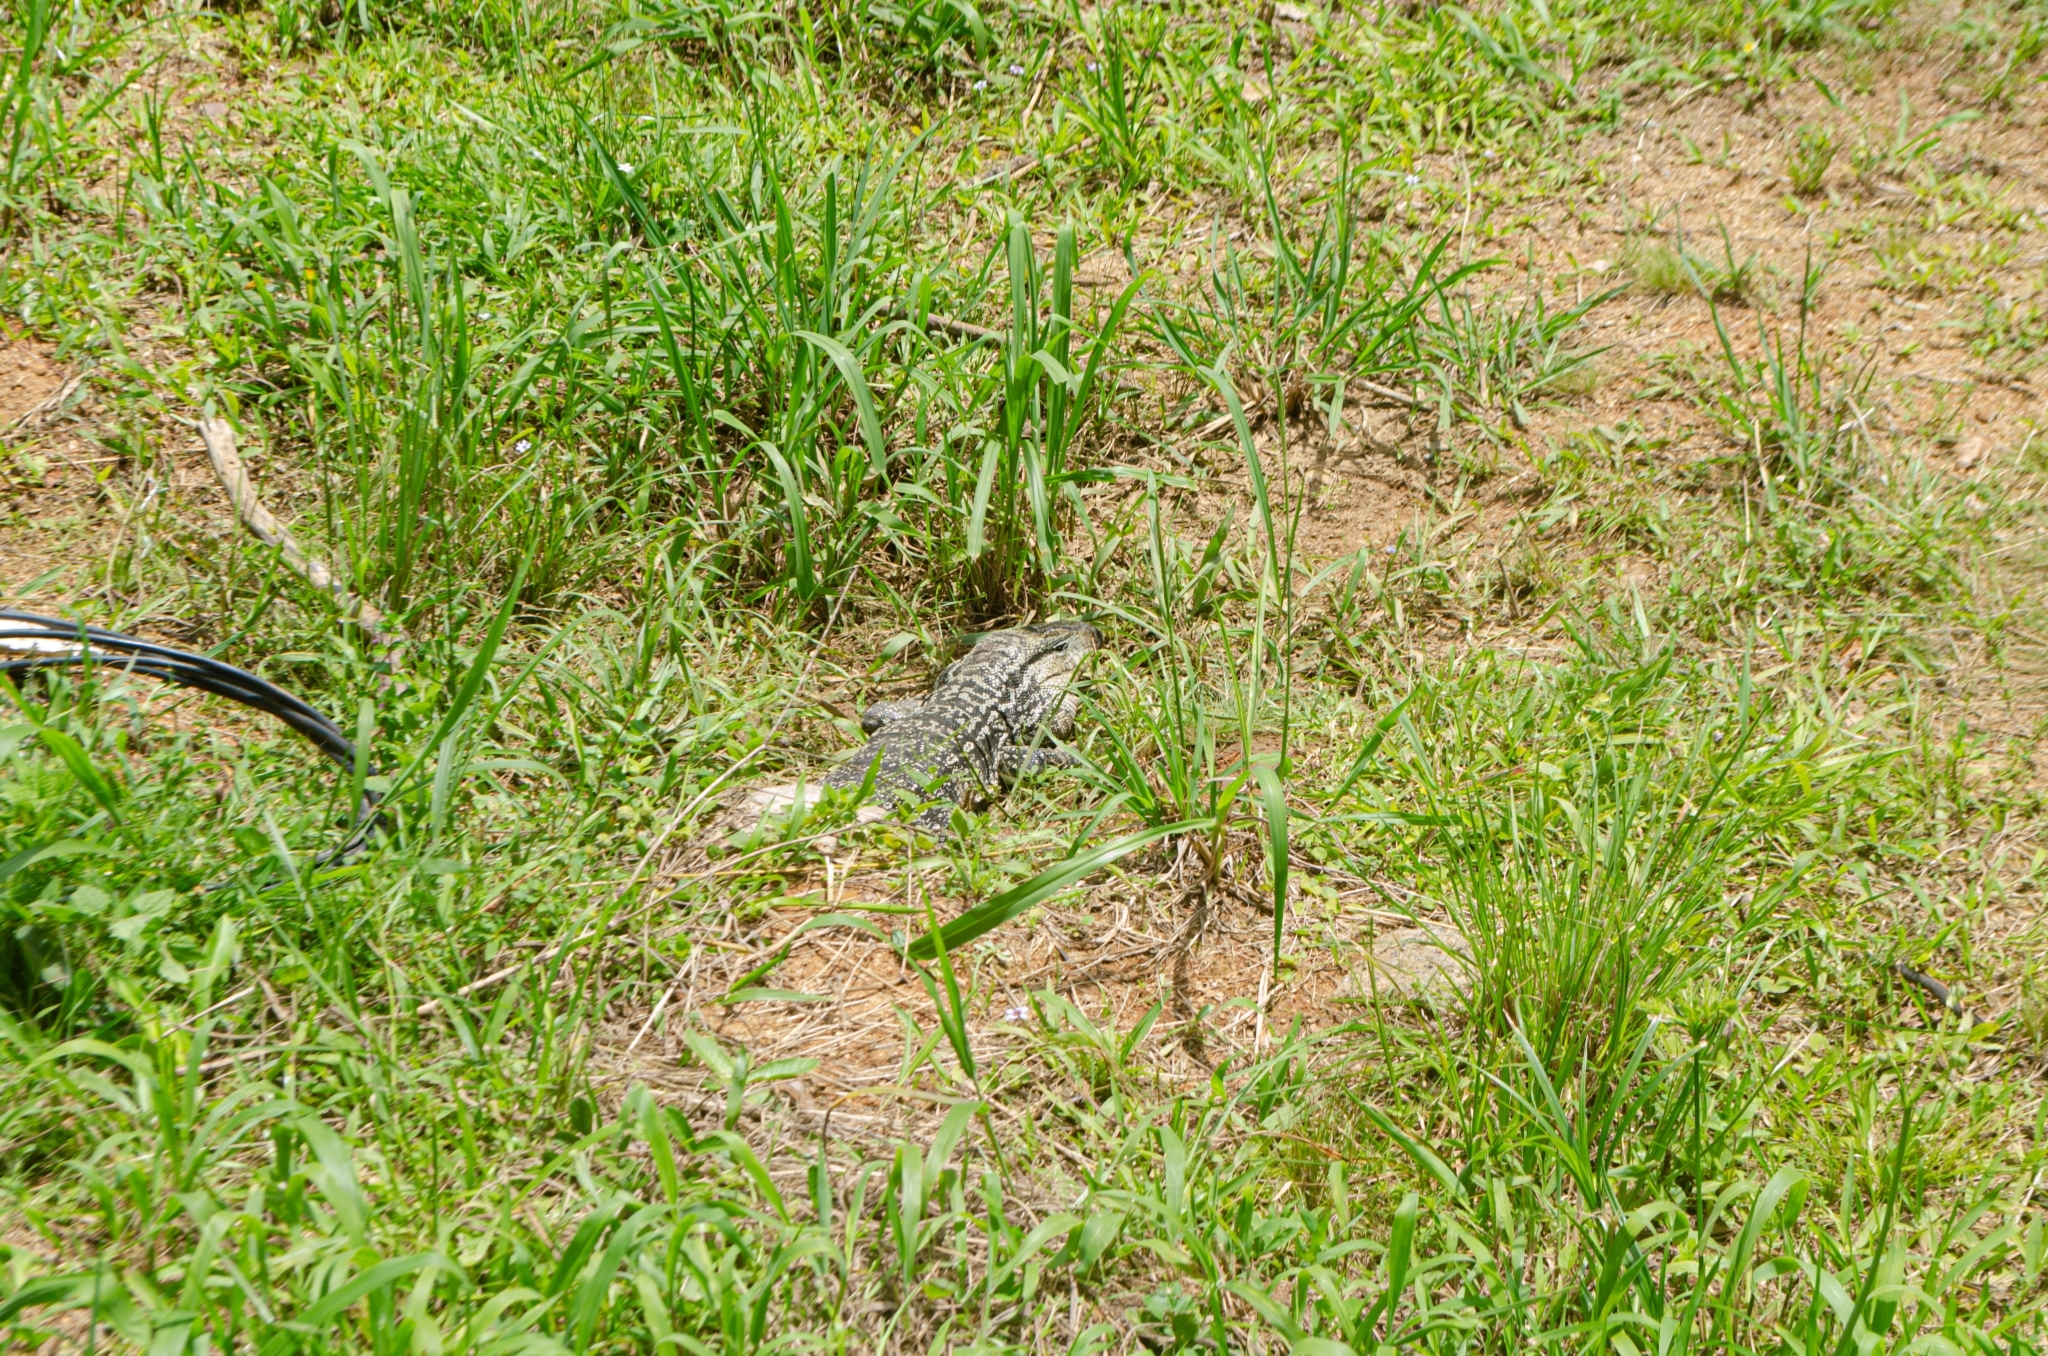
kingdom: Animalia
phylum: Chordata
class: Squamata
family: Teiidae
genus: Salvator
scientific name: Salvator merianae
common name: Argentine black and white tegu
